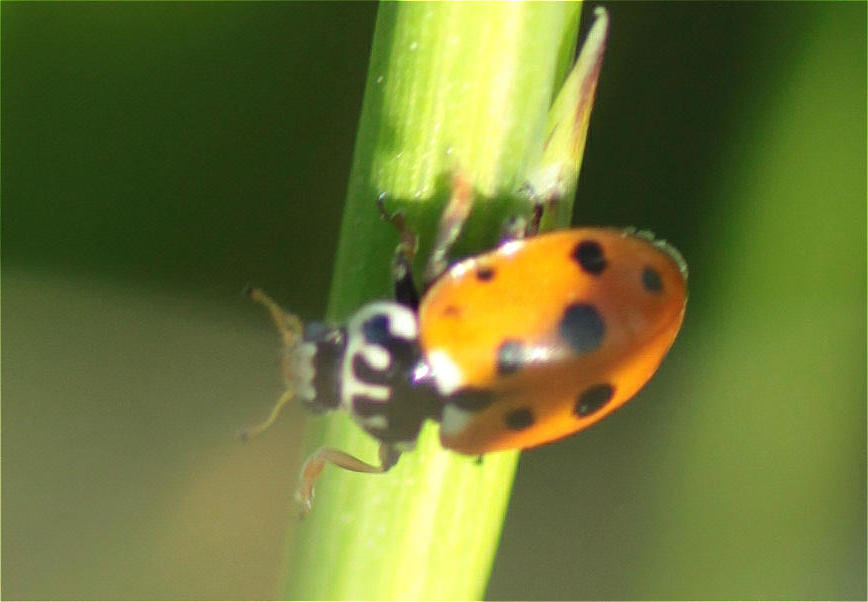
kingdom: Animalia
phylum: Arthropoda
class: Insecta
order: Coleoptera
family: Coccinellidae
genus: Hippodamia
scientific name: Hippodamia variegata
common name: Ladybird beetle
